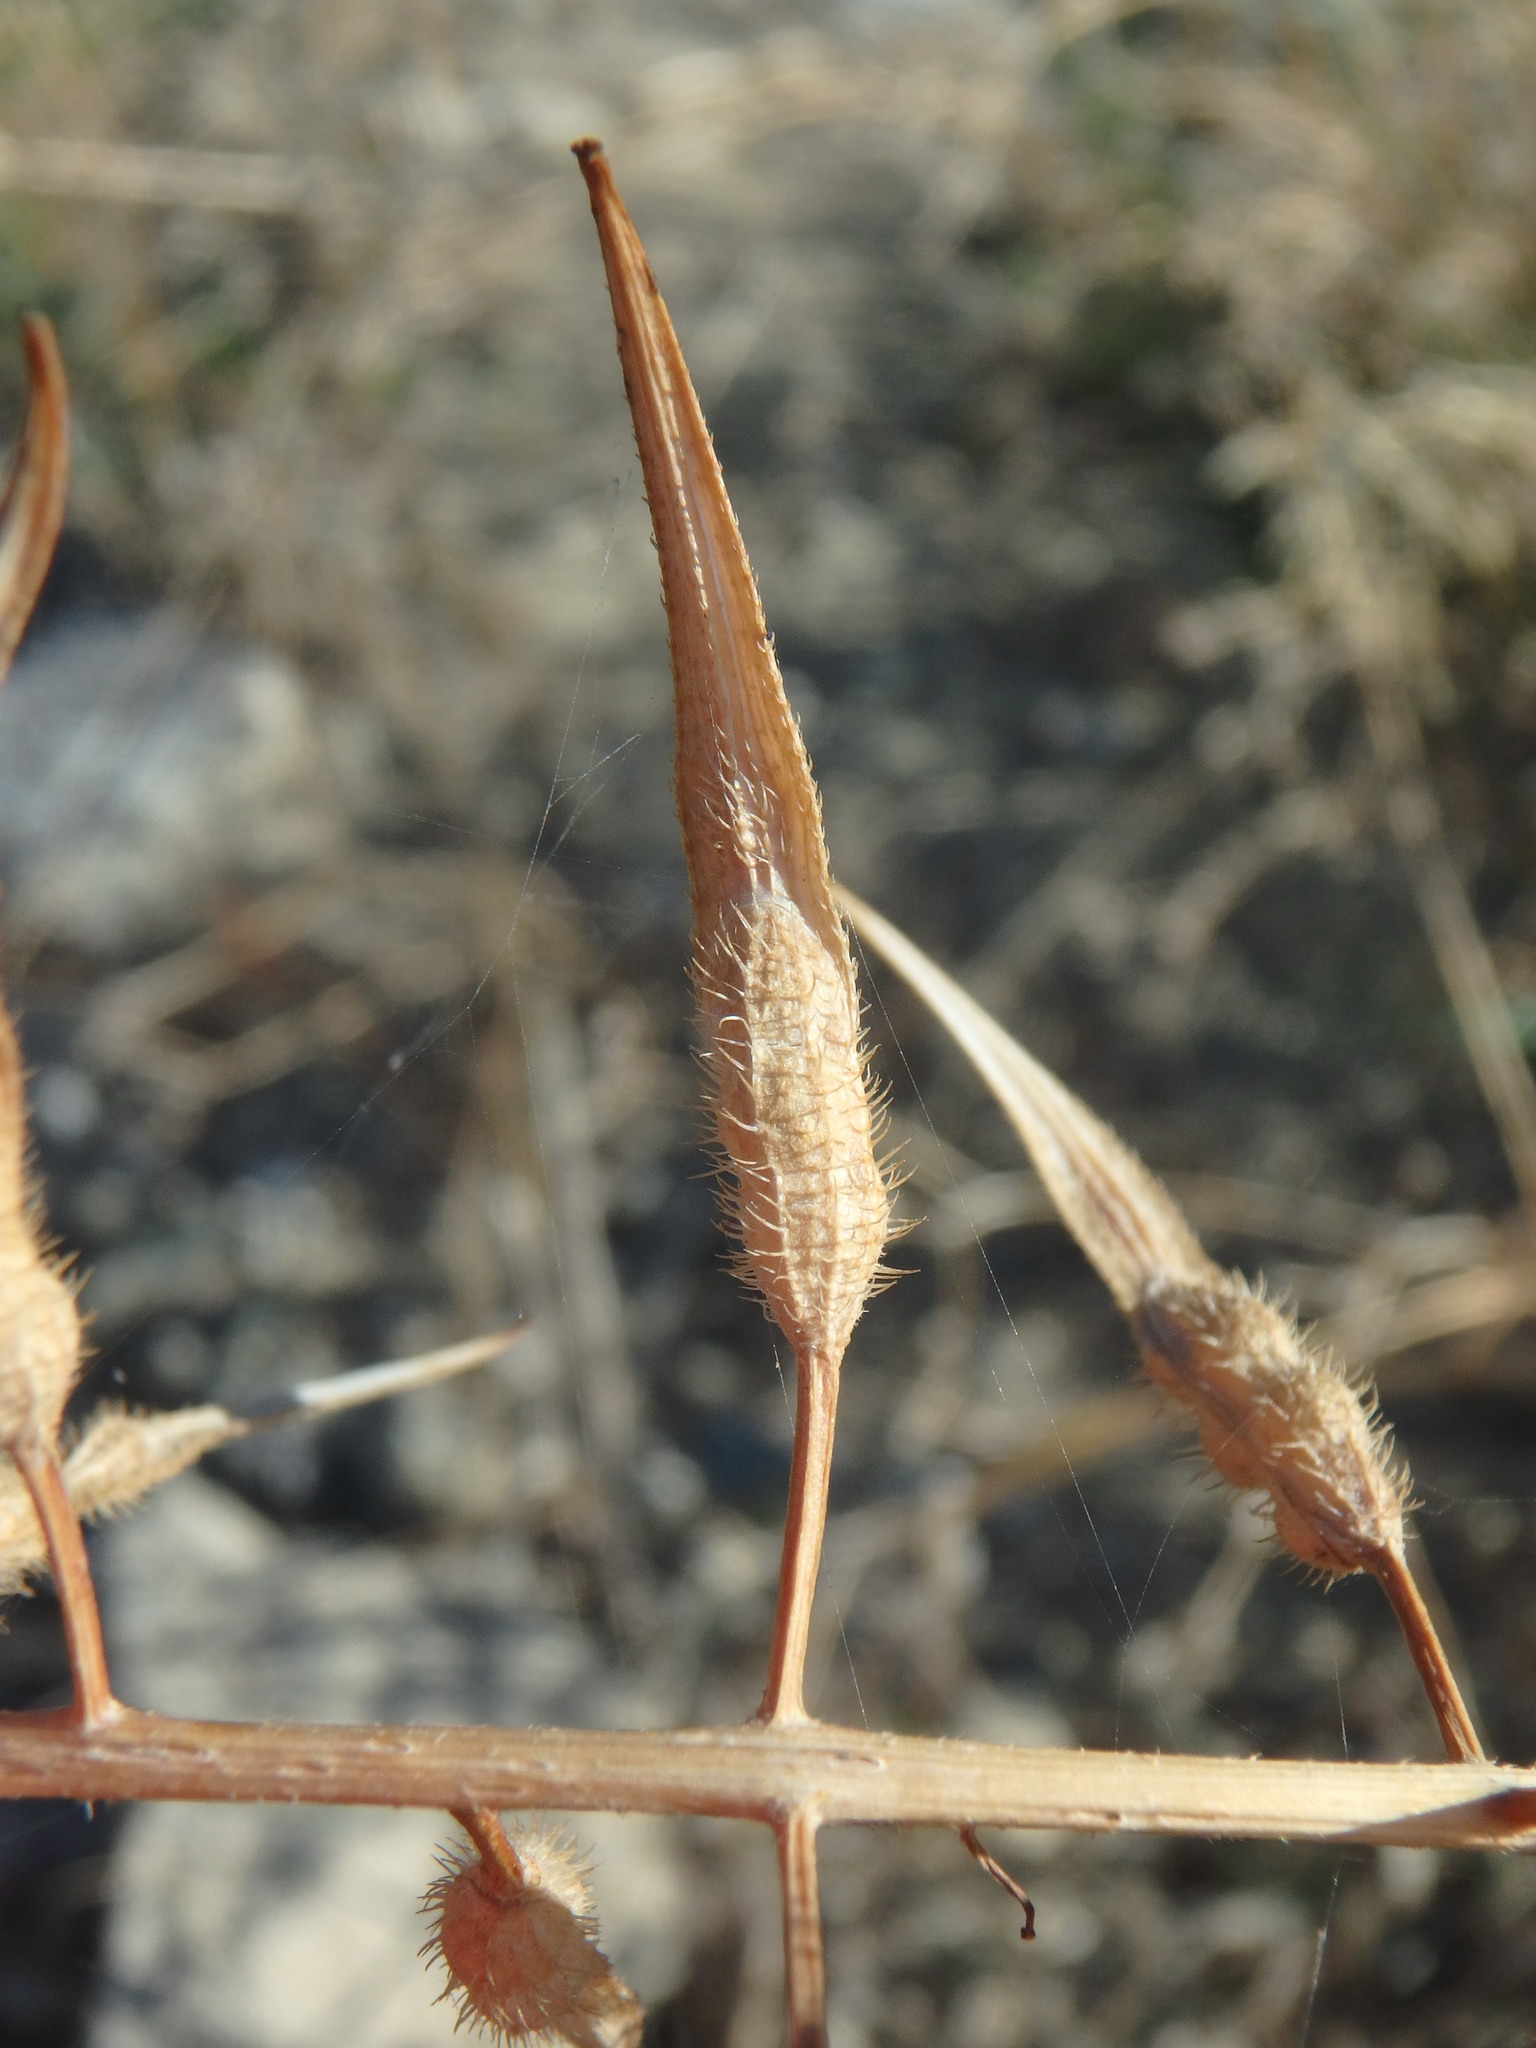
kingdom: Plantae
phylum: Tracheophyta
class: Magnoliopsida
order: Brassicales
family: Brassicaceae
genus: Sinapis
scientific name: Sinapis alba
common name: White mustard
